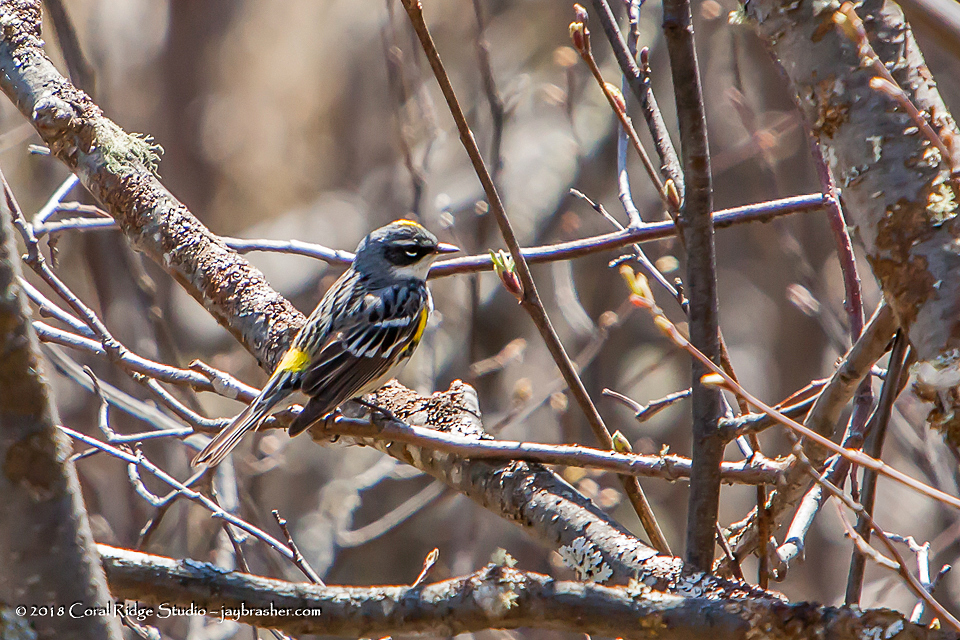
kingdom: Animalia
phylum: Chordata
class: Aves
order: Passeriformes
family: Parulidae
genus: Setophaga
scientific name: Setophaga coronata
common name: Myrtle warbler
